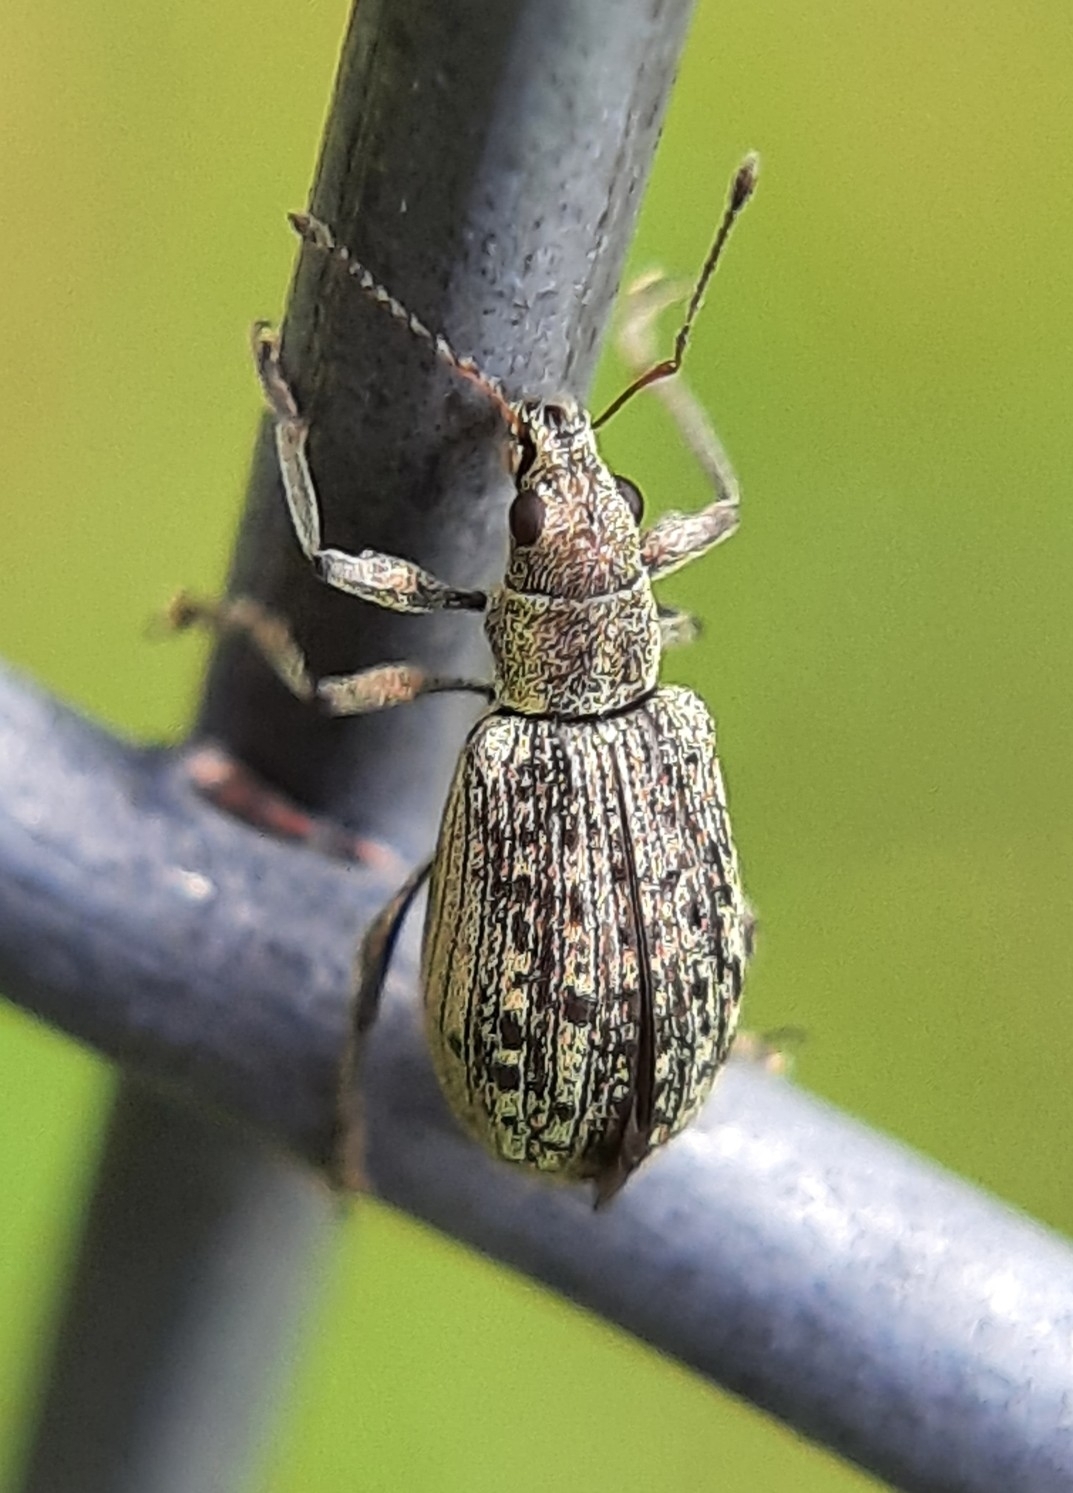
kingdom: Animalia
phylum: Arthropoda
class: Insecta
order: Coleoptera
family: Curculionidae
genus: Polydrusus
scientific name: Polydrusus cervinus
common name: Weevil
